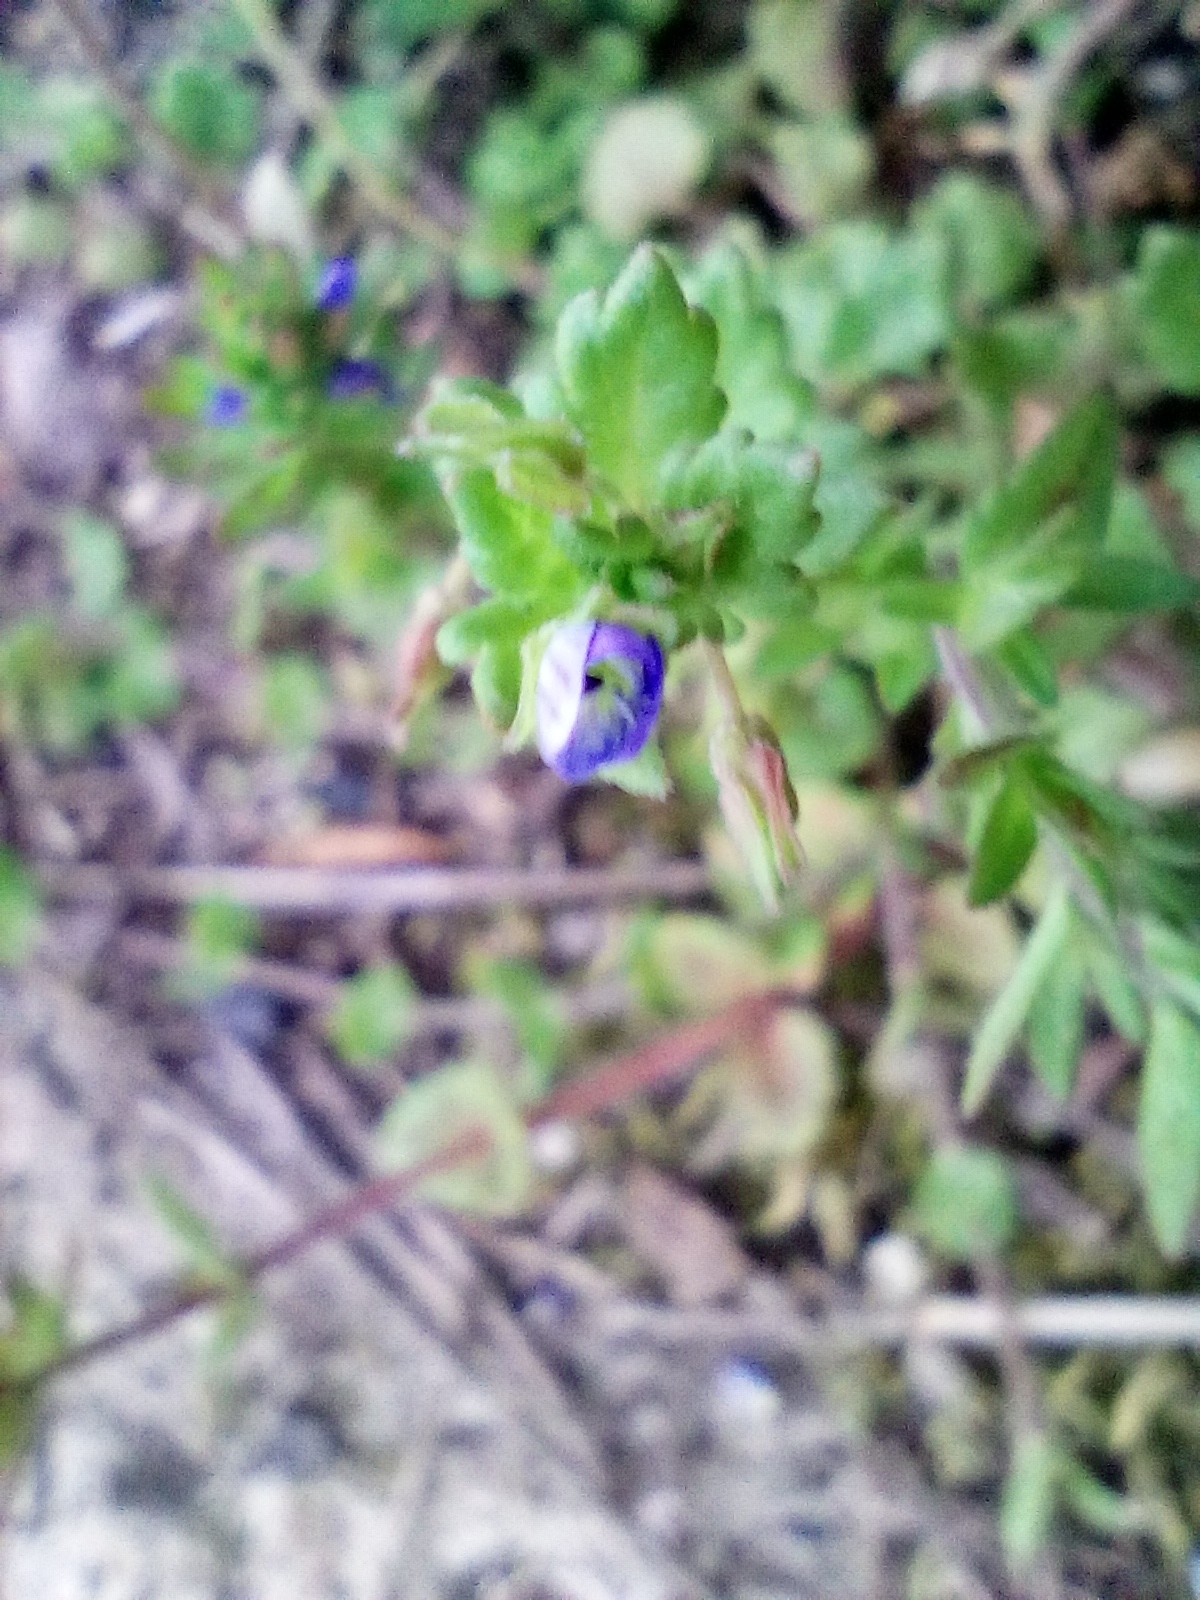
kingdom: Plantae
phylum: Tracheophyta
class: Magnoliopsida
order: Lamiales
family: Plantaginaceae
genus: Veronica
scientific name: Veronica polita
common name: Grey field-speedwell
